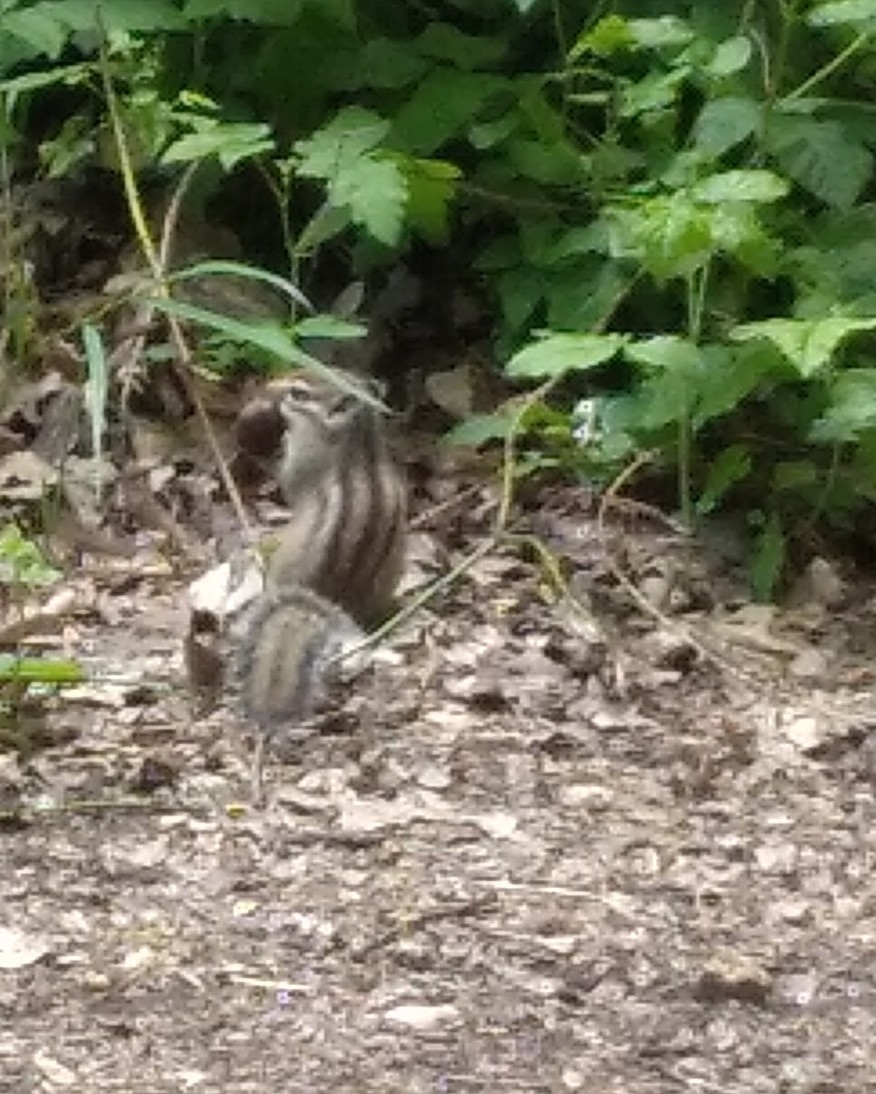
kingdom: Animalia
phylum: Chordata
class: Mammalia
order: Rodentia
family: Sciuridae
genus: Tamias
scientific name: Tamias sibiricus
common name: Siberian chipmunk
